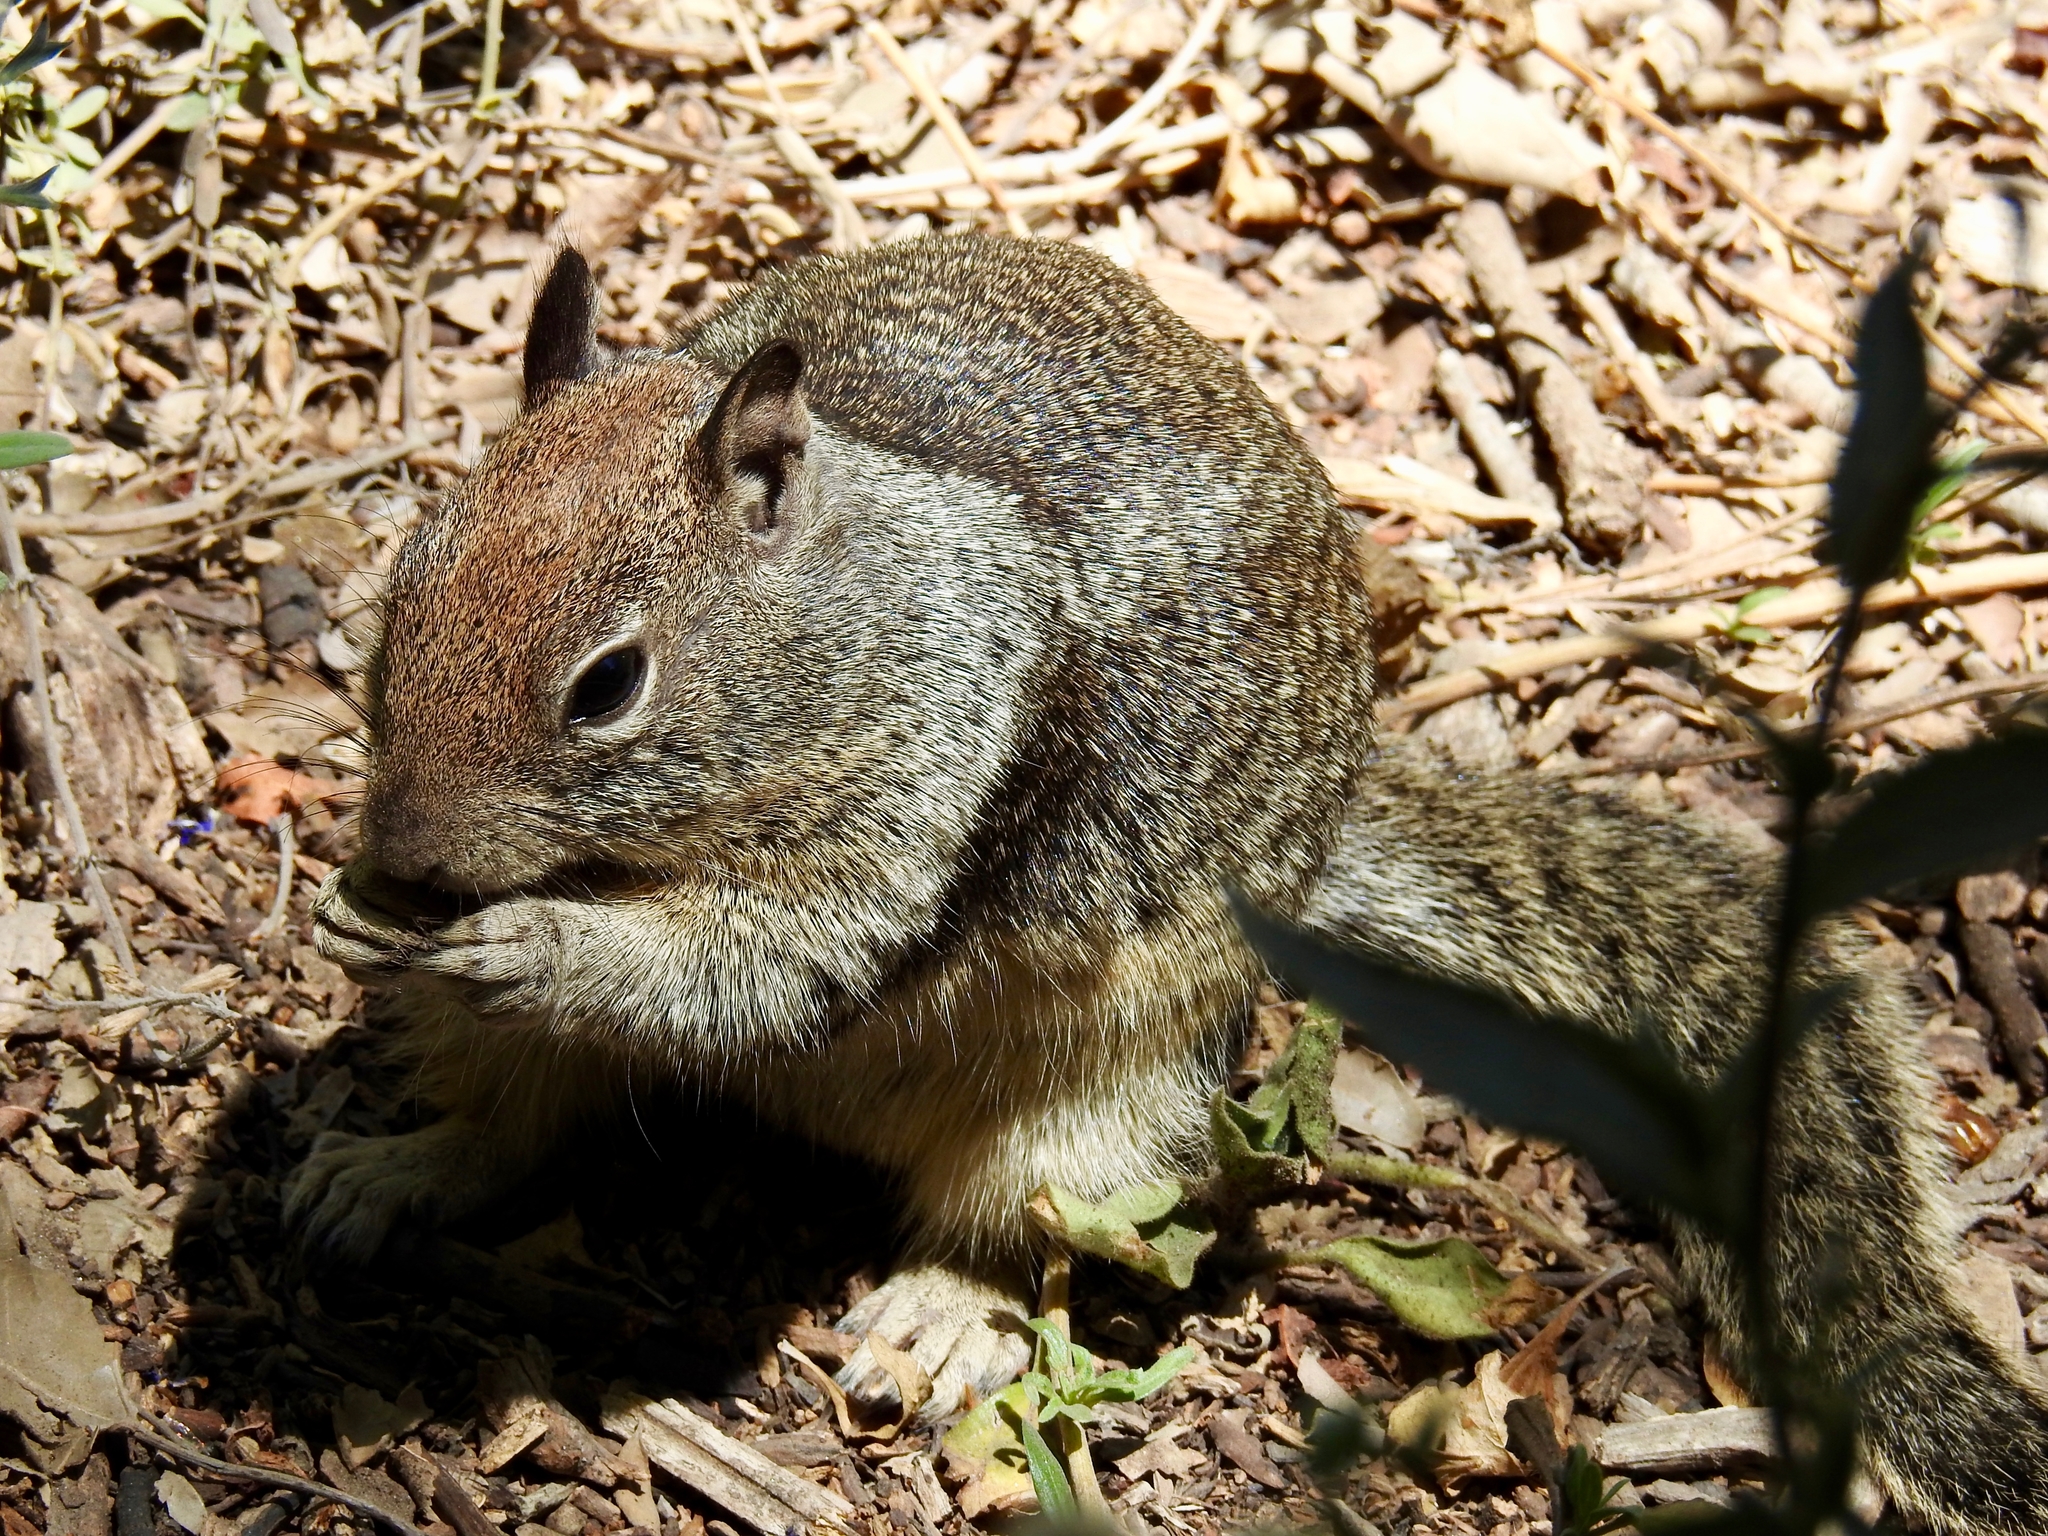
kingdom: Animalia
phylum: Chordata
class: Mammalia
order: Rodentia
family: Sciuridae
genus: Otospermophilus
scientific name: Otospermophilus beecheyi
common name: California ground squirrel
